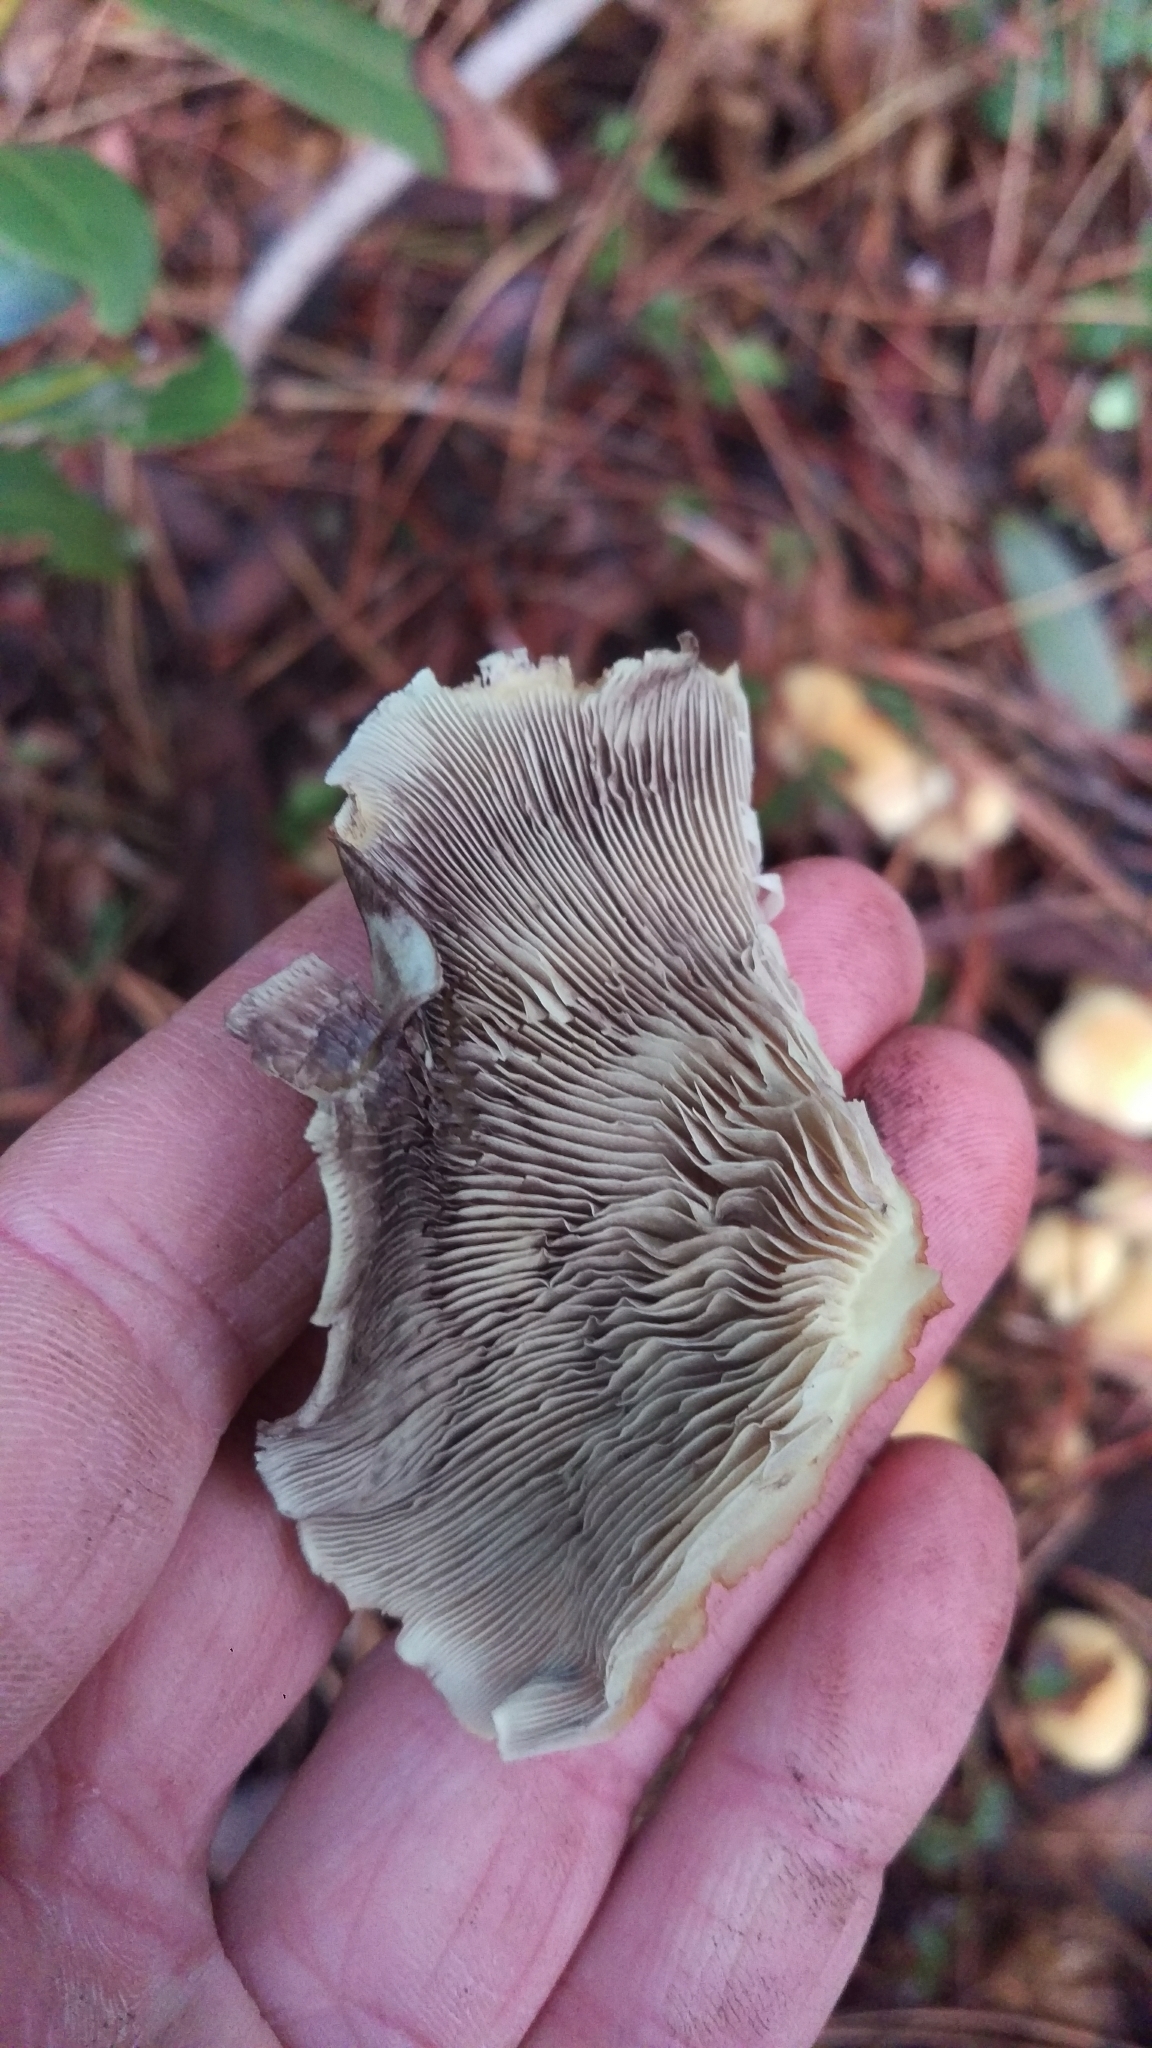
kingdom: Fungi
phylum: Basidiomycota
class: Agaricomycetes
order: Agaricales
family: Strophariaceae
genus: Hypholoma
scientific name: Hypholoma fasciculare
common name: Sulphur tuft
